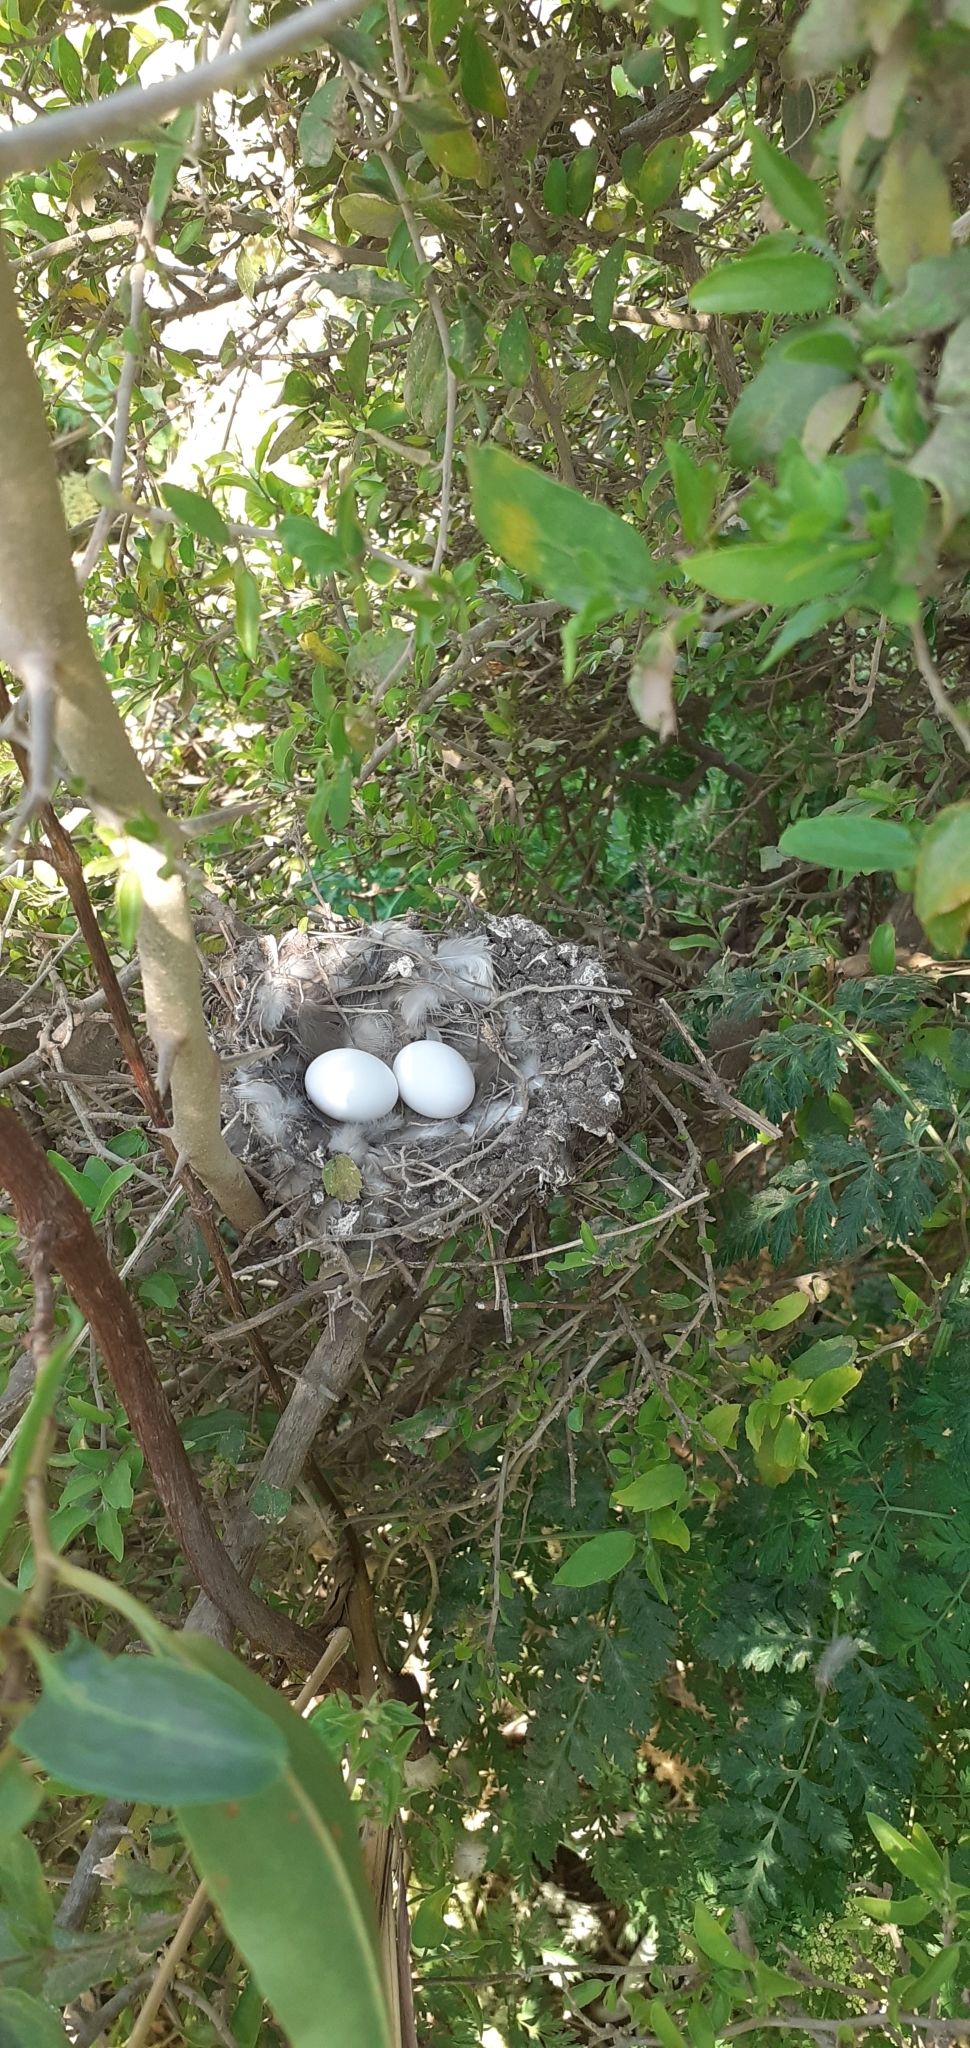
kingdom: Animalia
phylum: Chordata
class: Aves
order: Columbiformes
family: Columbidae
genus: Columbina
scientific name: Columbina picui
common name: Picui ground dove
